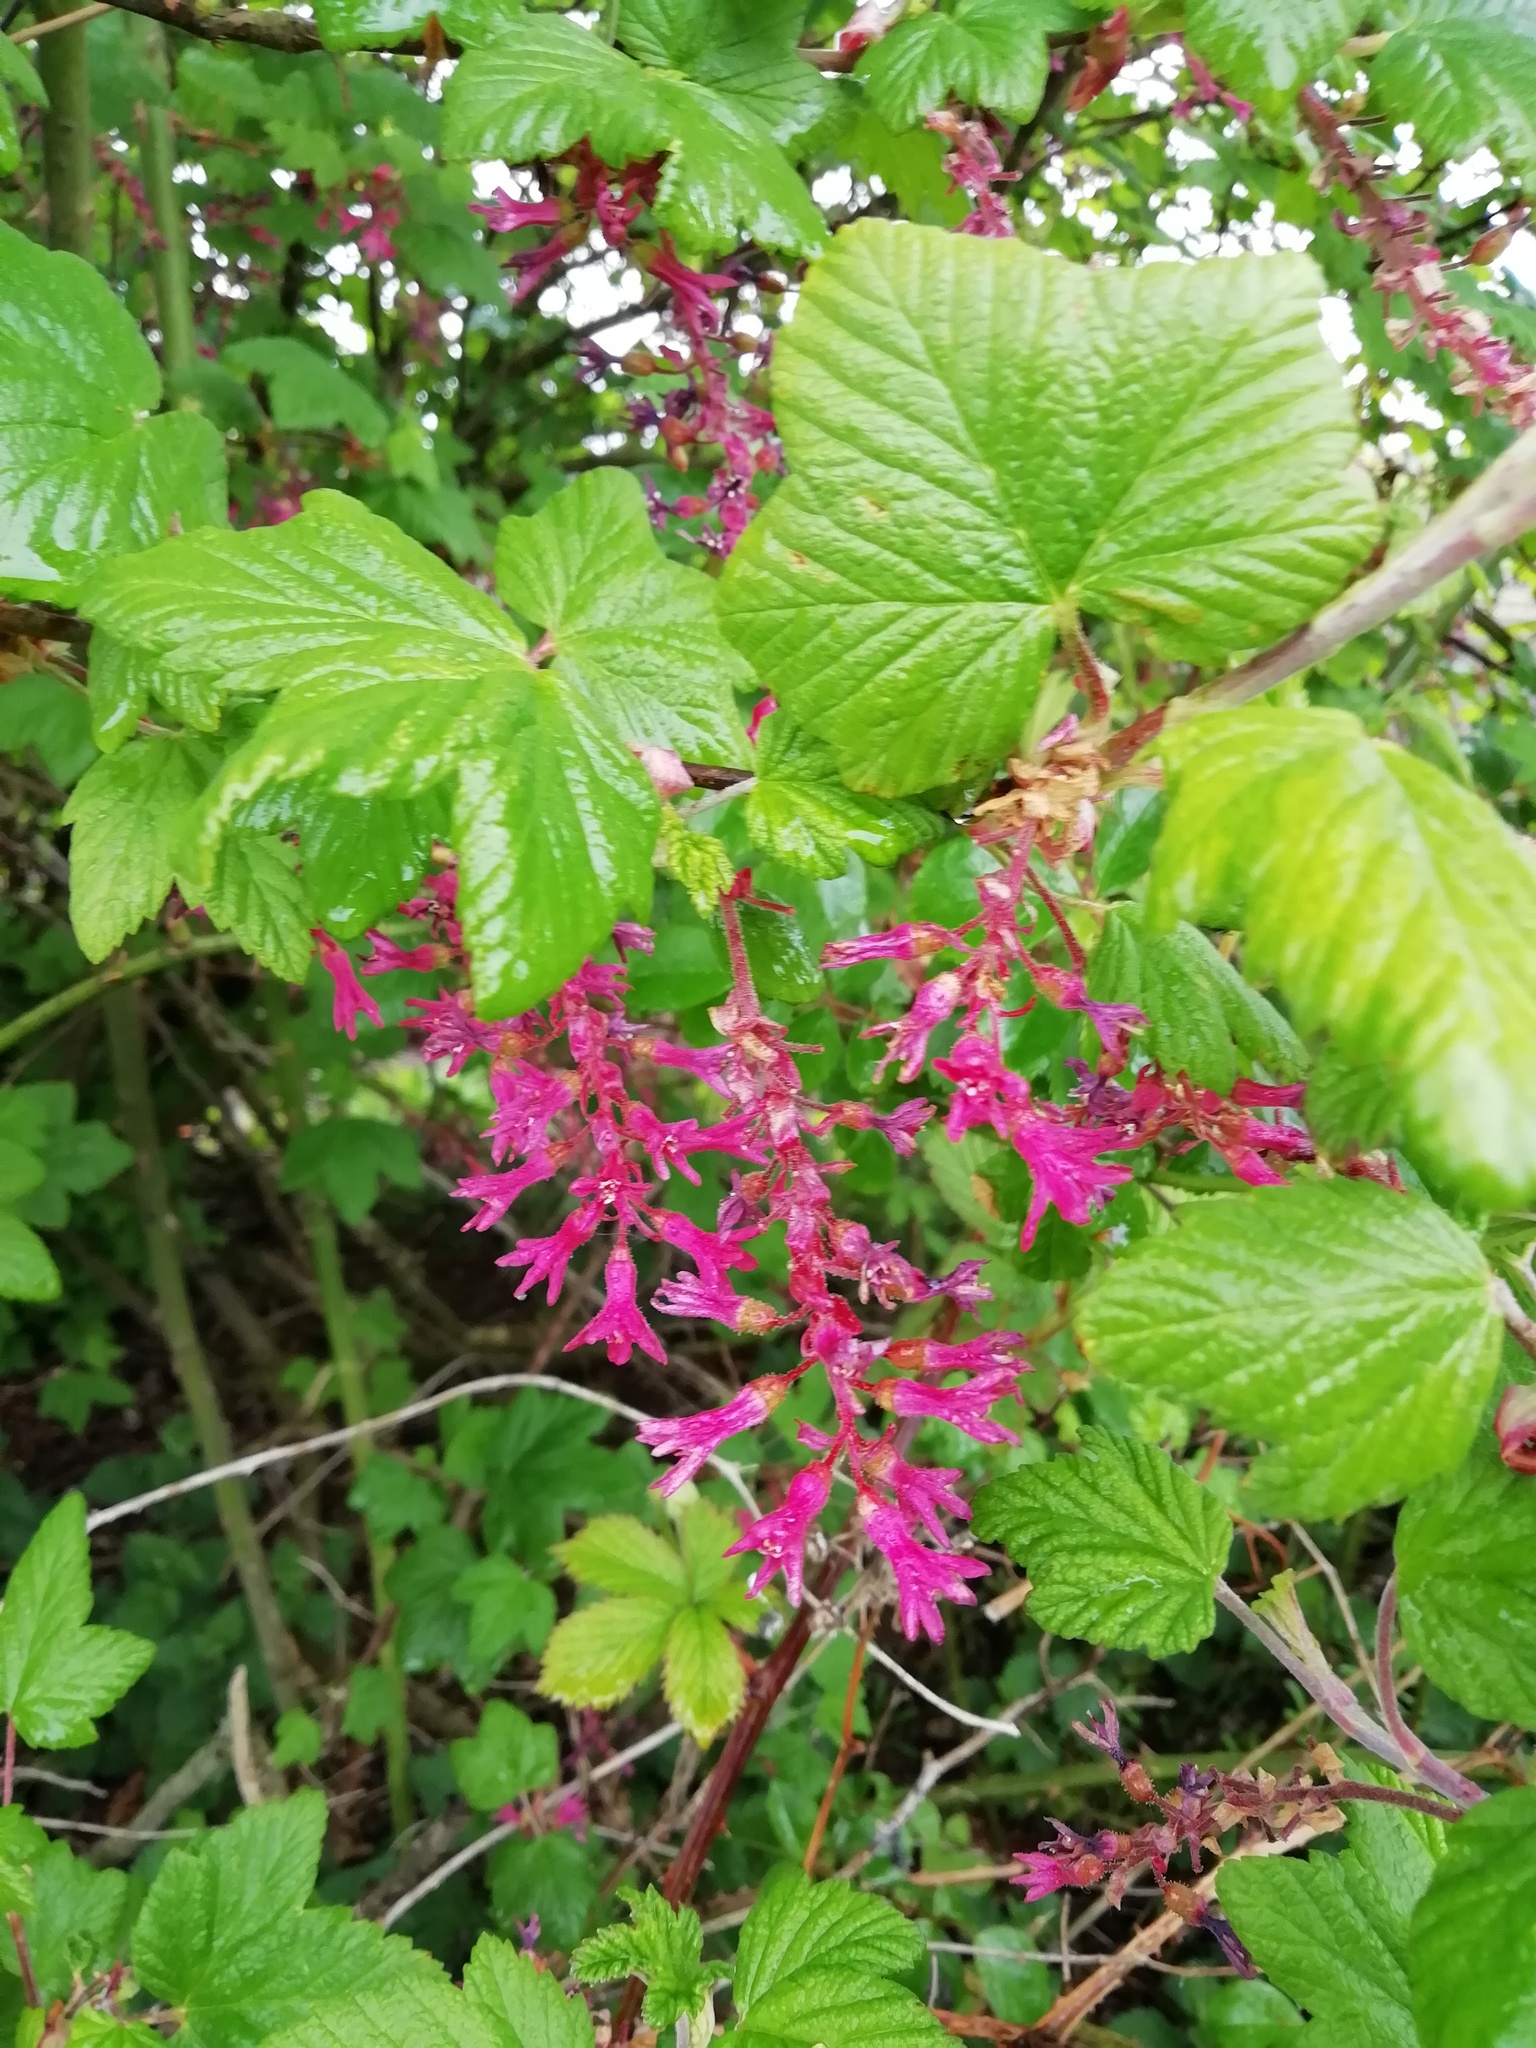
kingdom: Plantae
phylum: Tracheophyta
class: Magnoliopsida
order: Saxifragales
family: Grossulariaceae
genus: Ribes
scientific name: Ribes sanguineum
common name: Flowering currant
